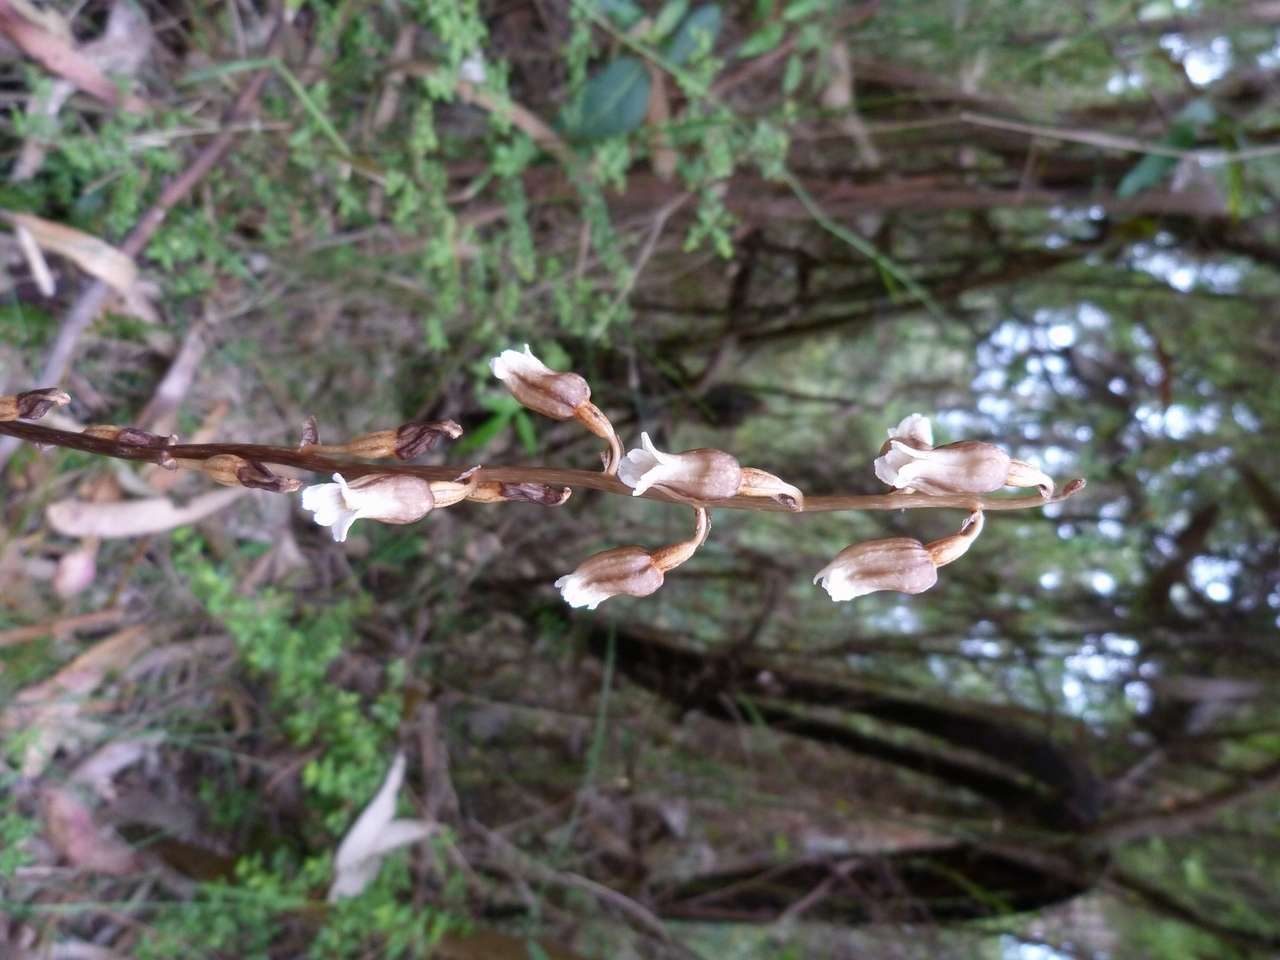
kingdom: Plantae
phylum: Tracheophyta
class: Liliopsida
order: Asparagales
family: Orchidaceae
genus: Gastrodia
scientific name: Gastrodia sesamoides
